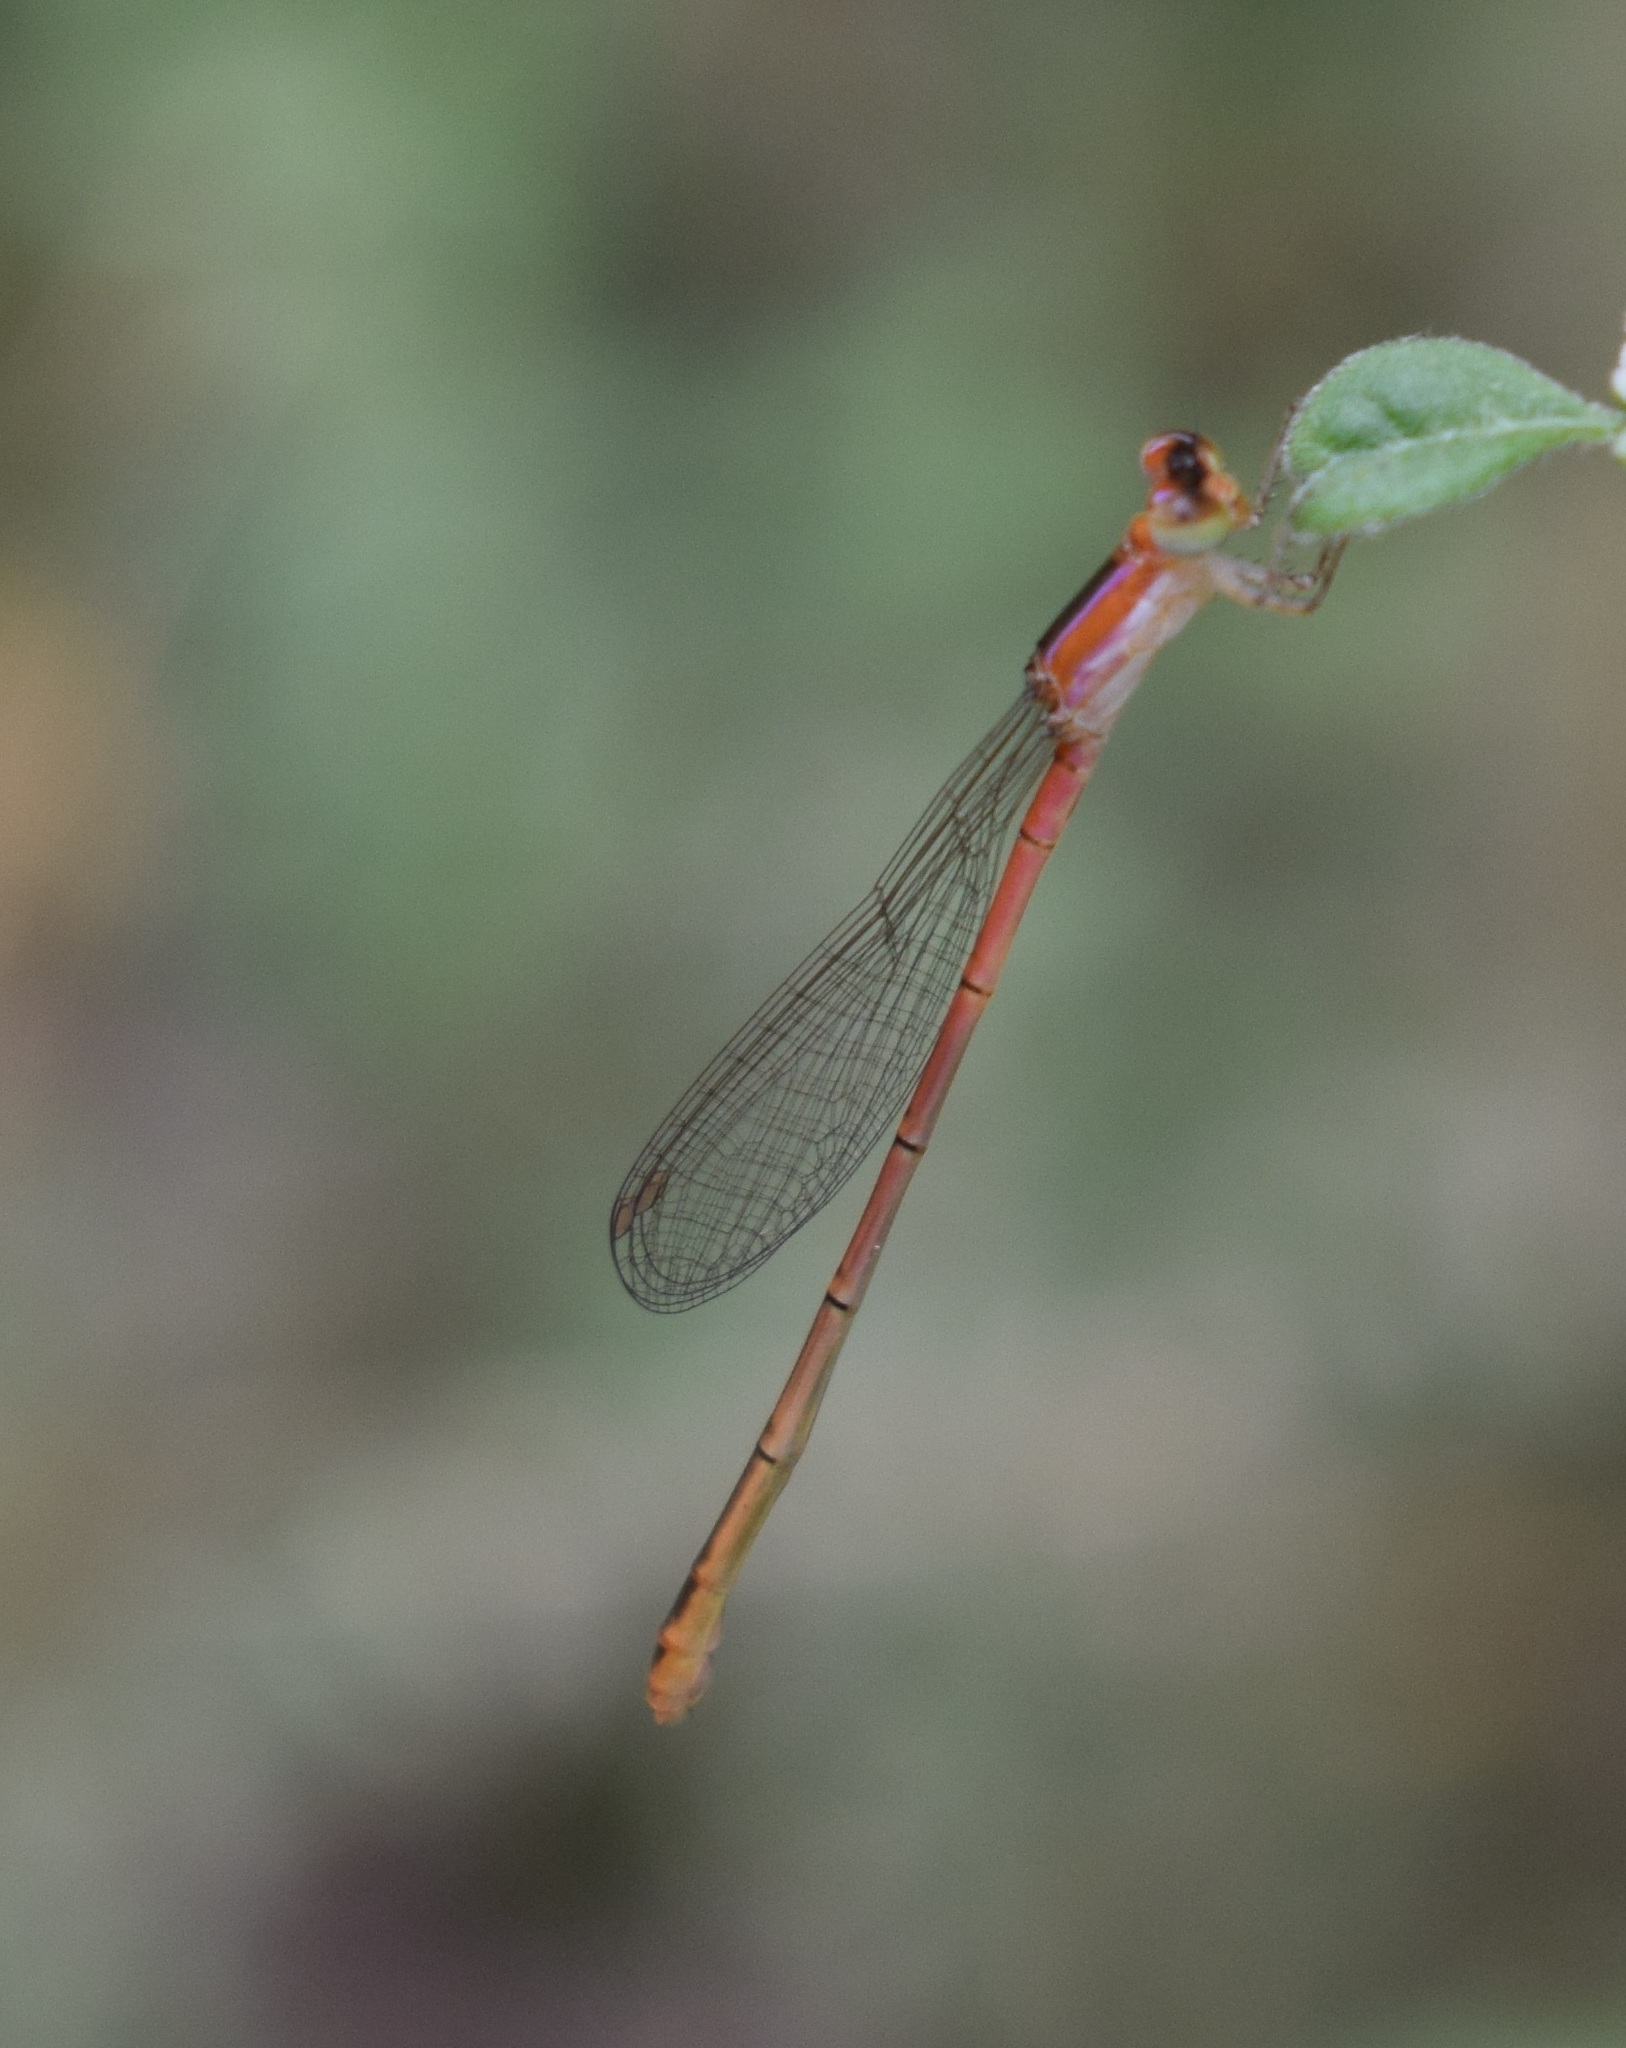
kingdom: Animalia
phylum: Arthropoda
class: Insecta
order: Odonata
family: Coenagrionidae
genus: Agriocnemis
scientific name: Agriocnemis pygmaea
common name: Pygmy wisp
